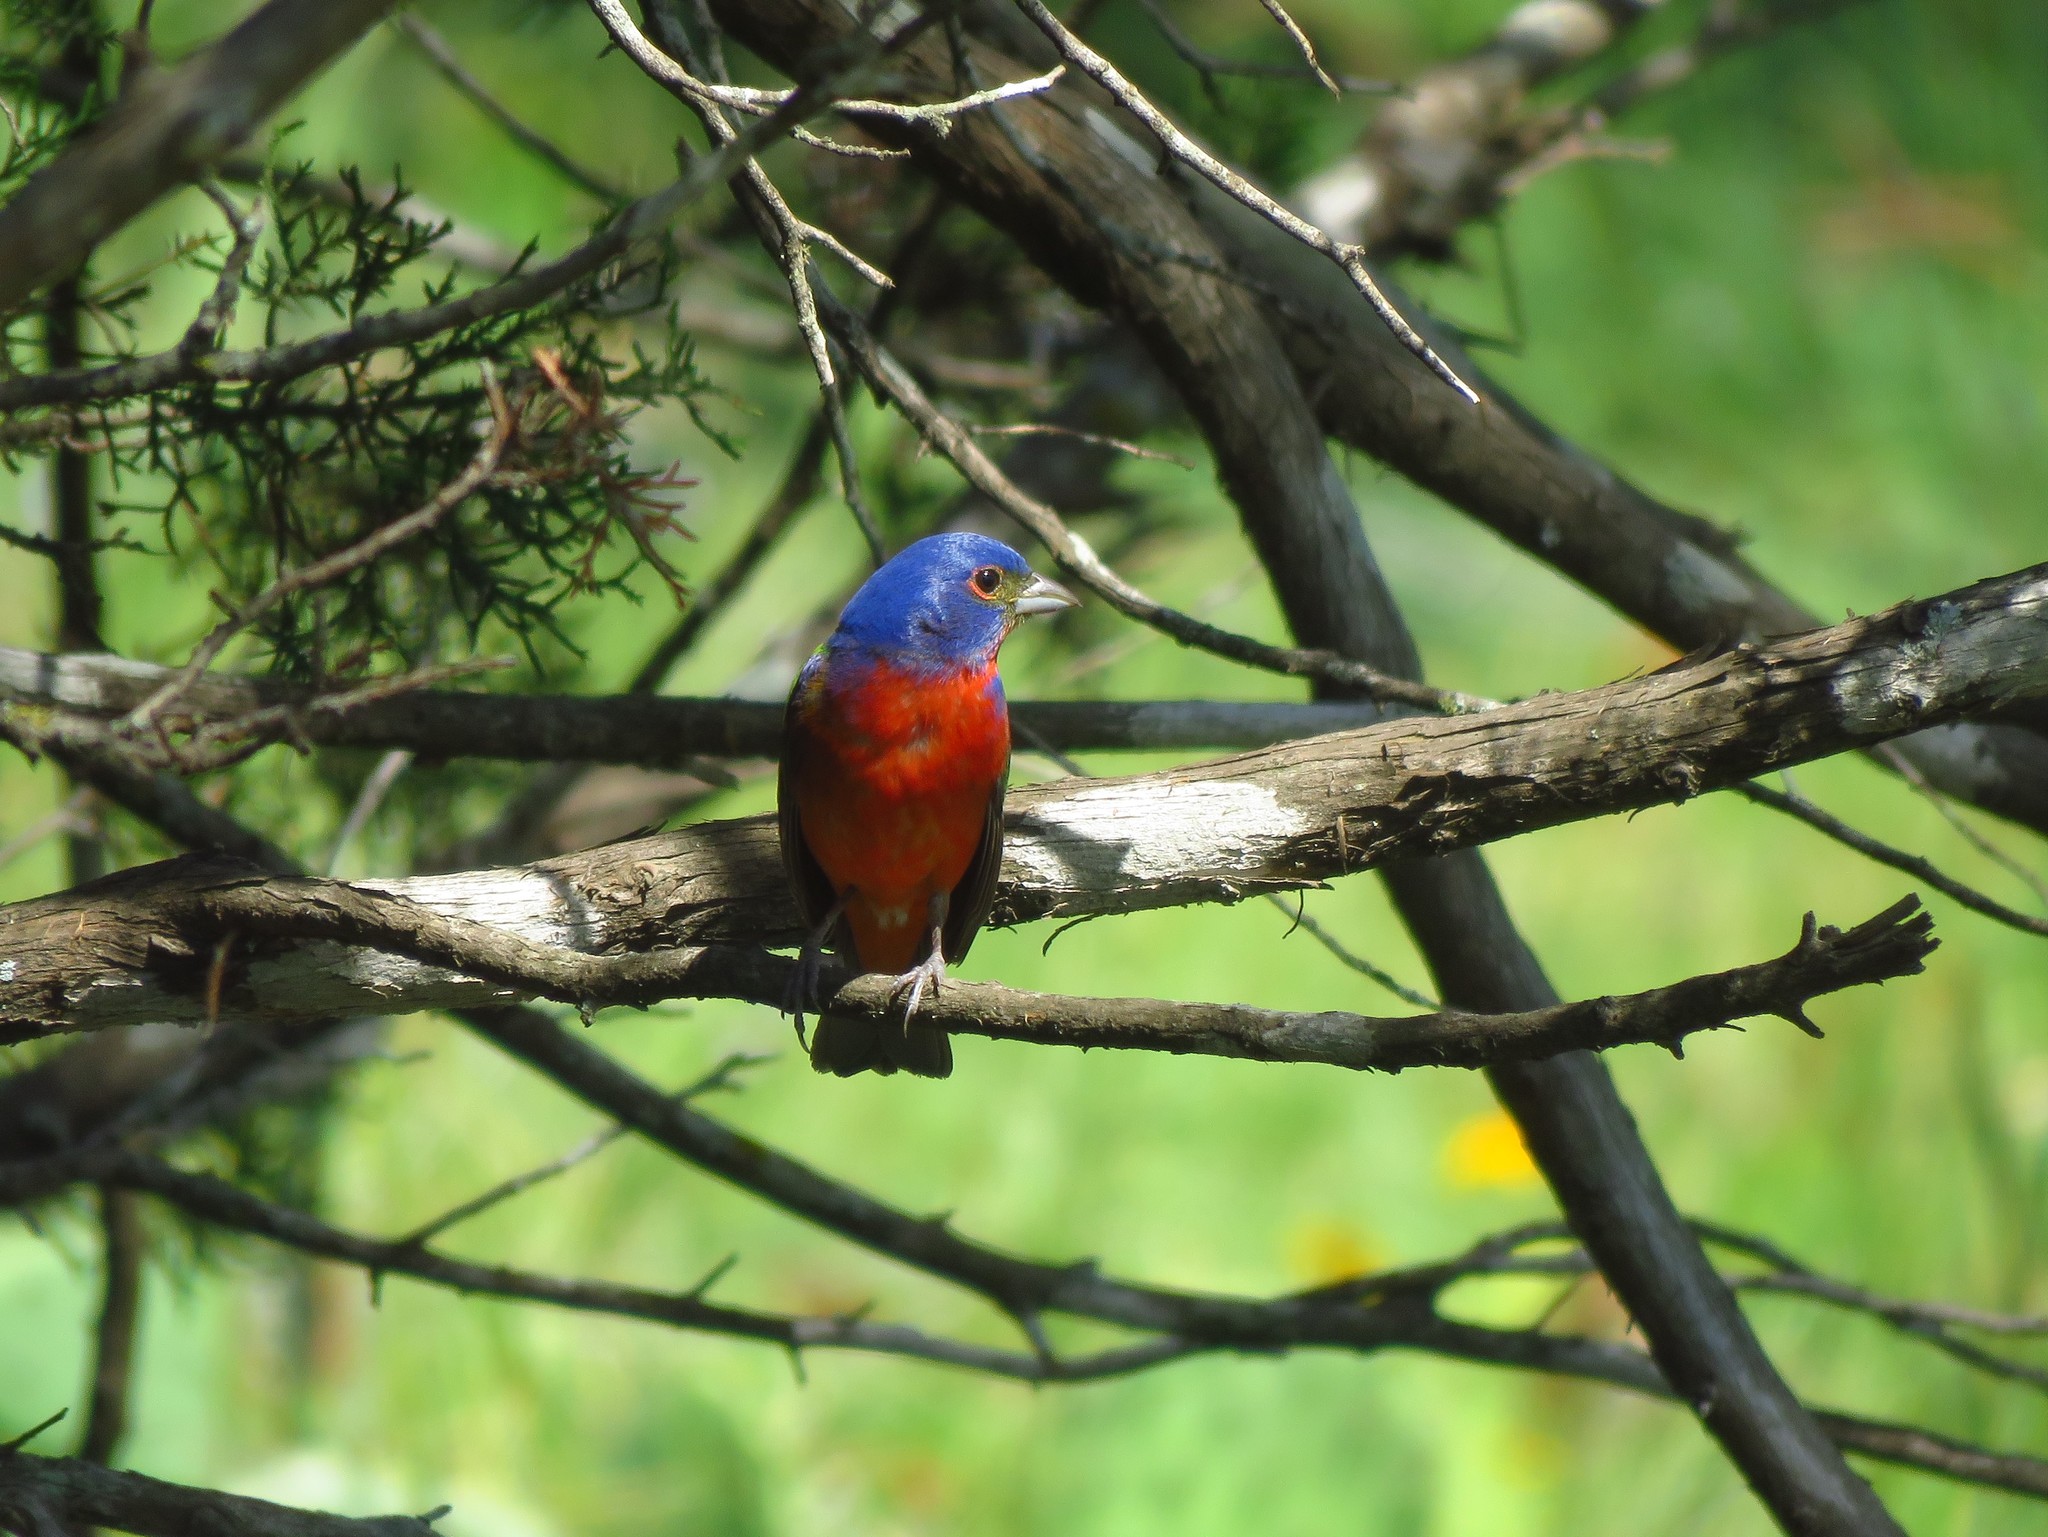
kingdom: Animalia
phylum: Chordata
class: Aves
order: Passeriformes
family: Cardinalidae
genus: Passerina
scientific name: Passerina ciris
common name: Painted bunting
